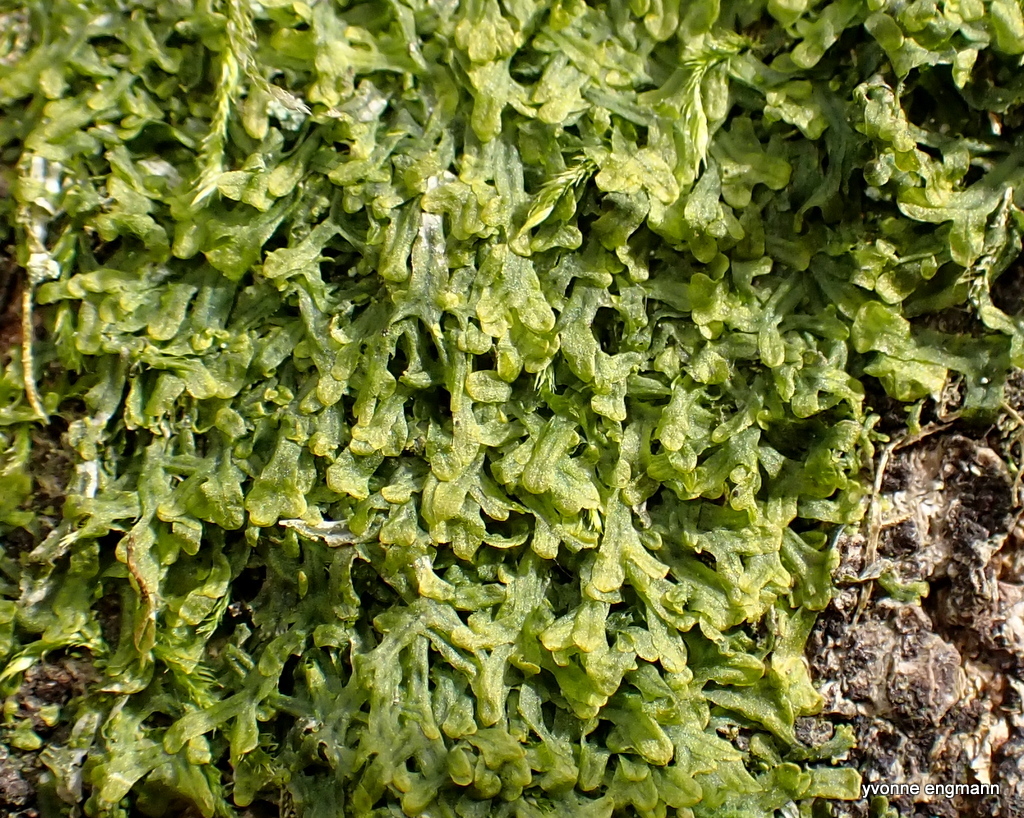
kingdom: Plantae
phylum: Marchantiophyta
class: Jungermanniopsida
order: Metzgeriales
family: Metzgeriaceae
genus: Metzgeria
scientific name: Metzgeria furcata
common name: Forked veilwort
